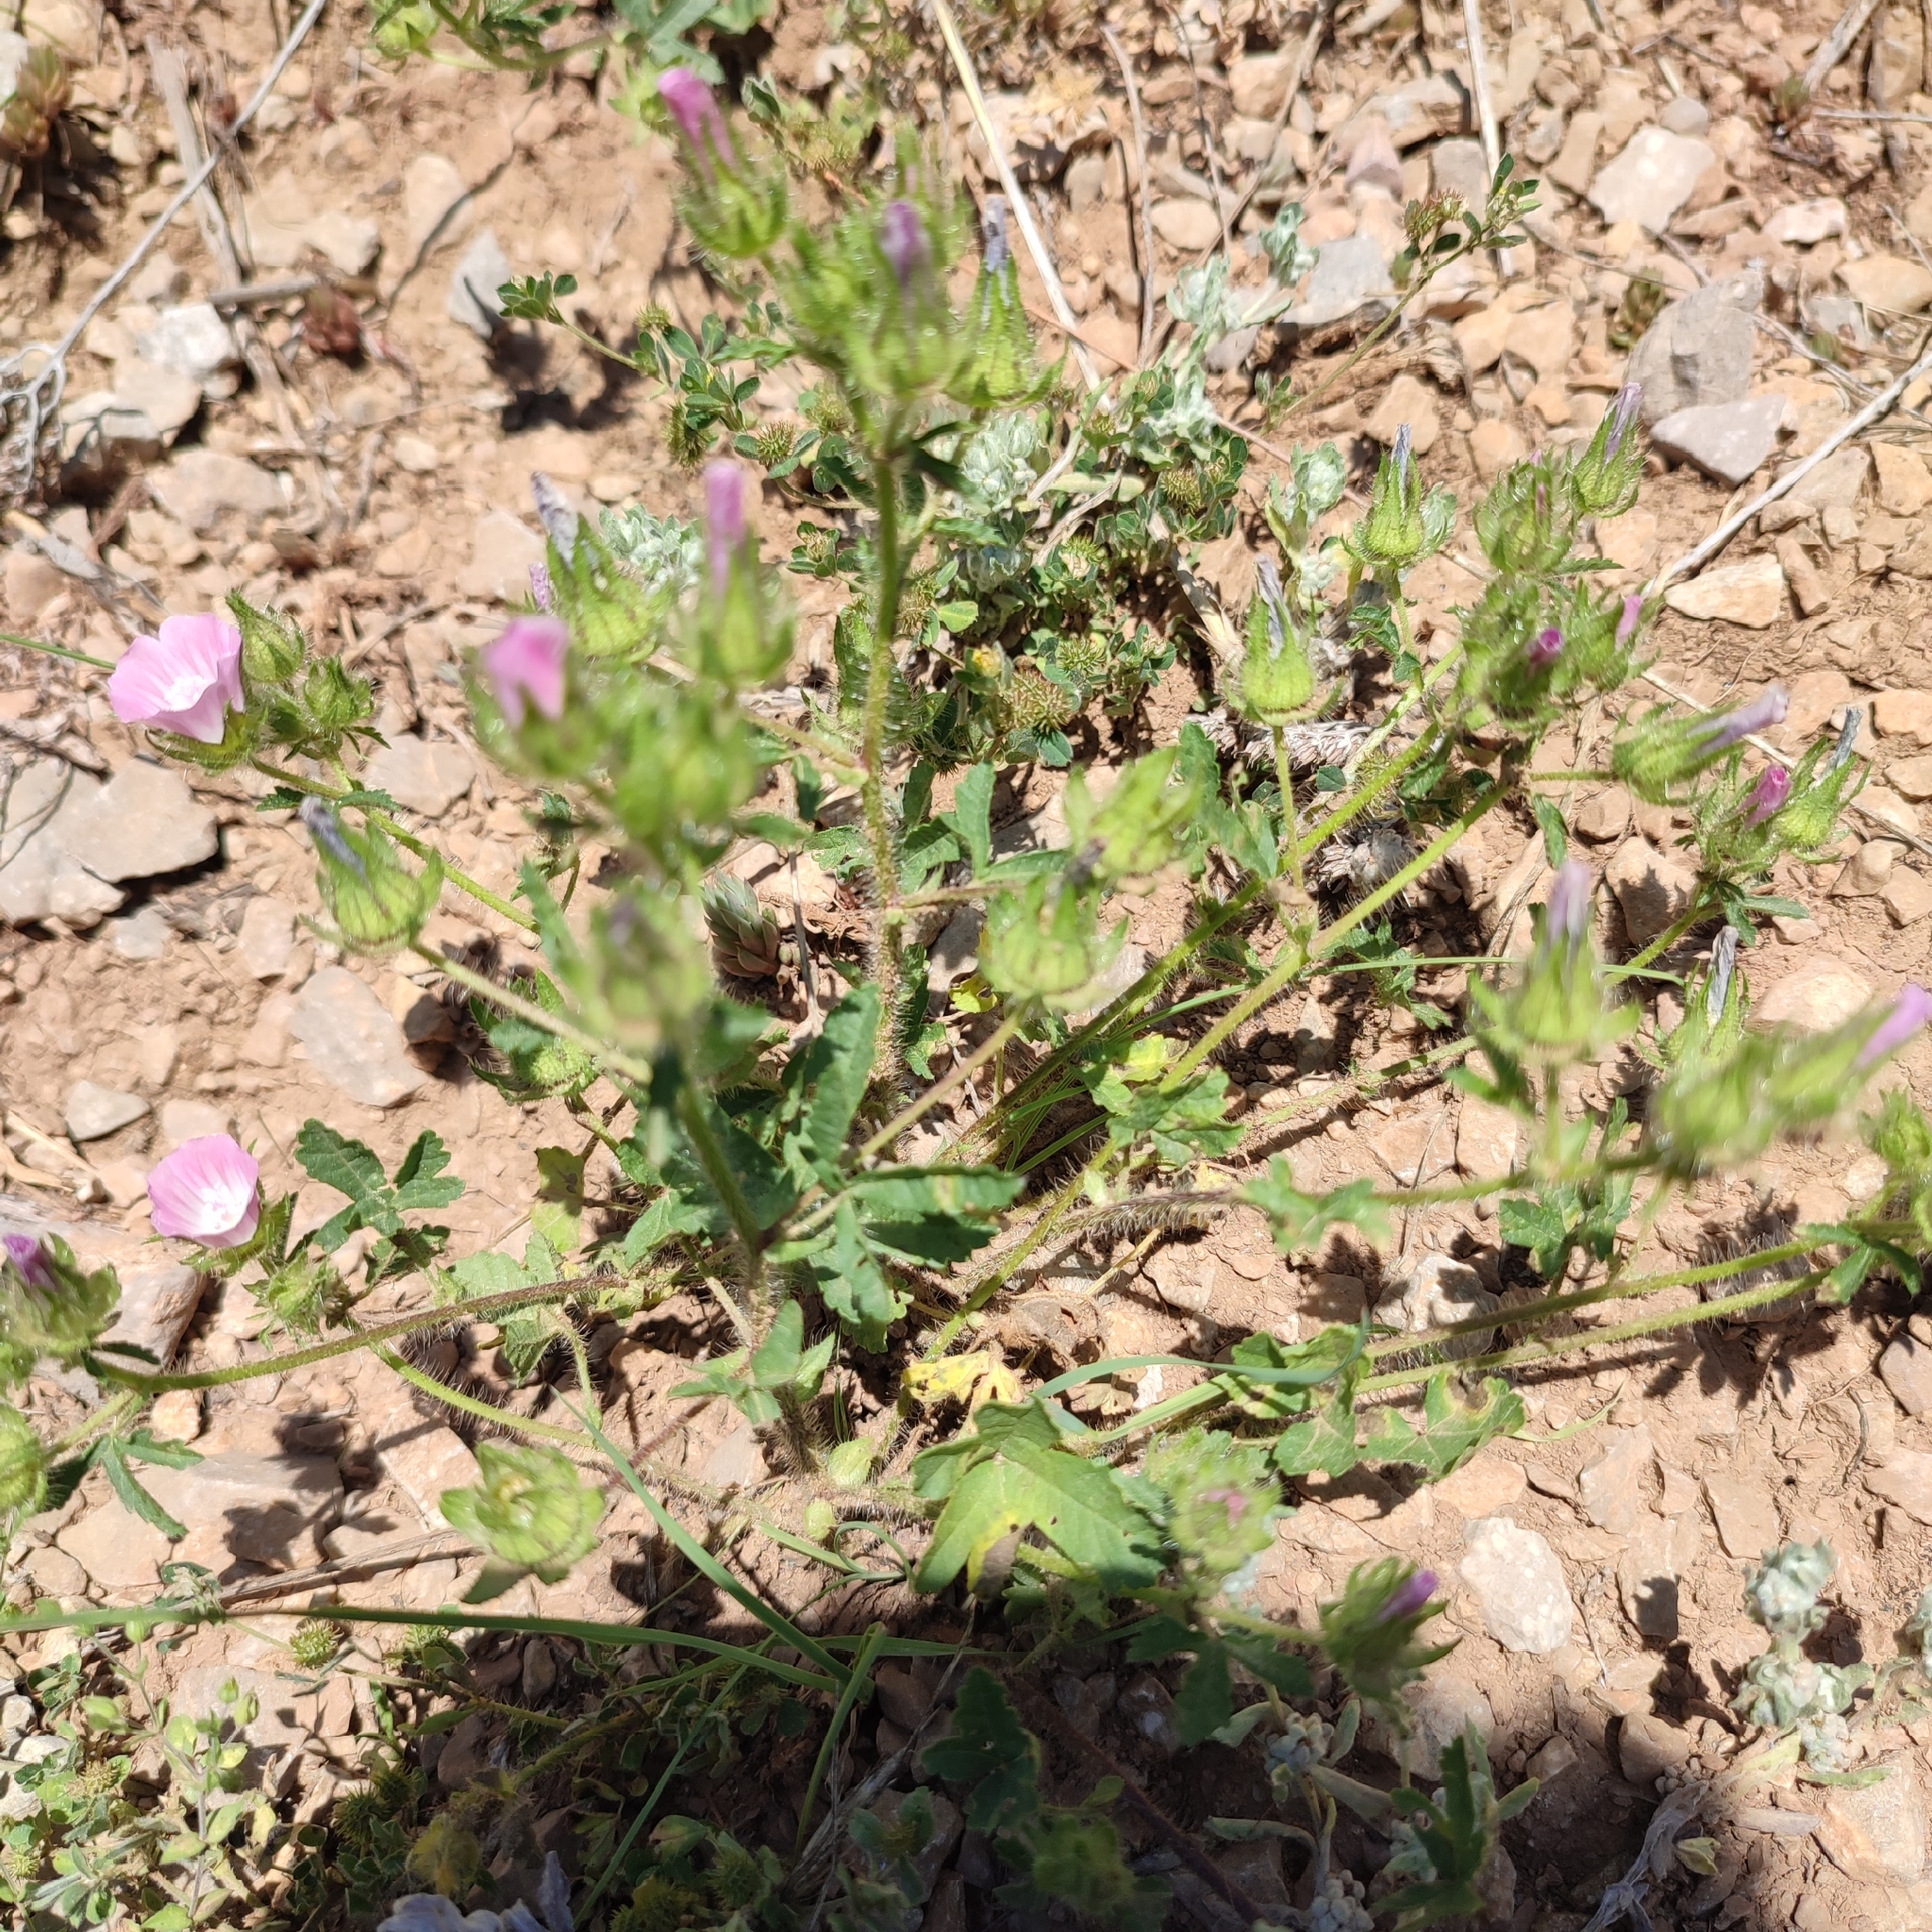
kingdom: Plantae
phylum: Tracheophyta
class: Magnoliopsida
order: Malvales
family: Malvaceae
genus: Althaea
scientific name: Althaea hirsuta
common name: Rough marsh-mallow
